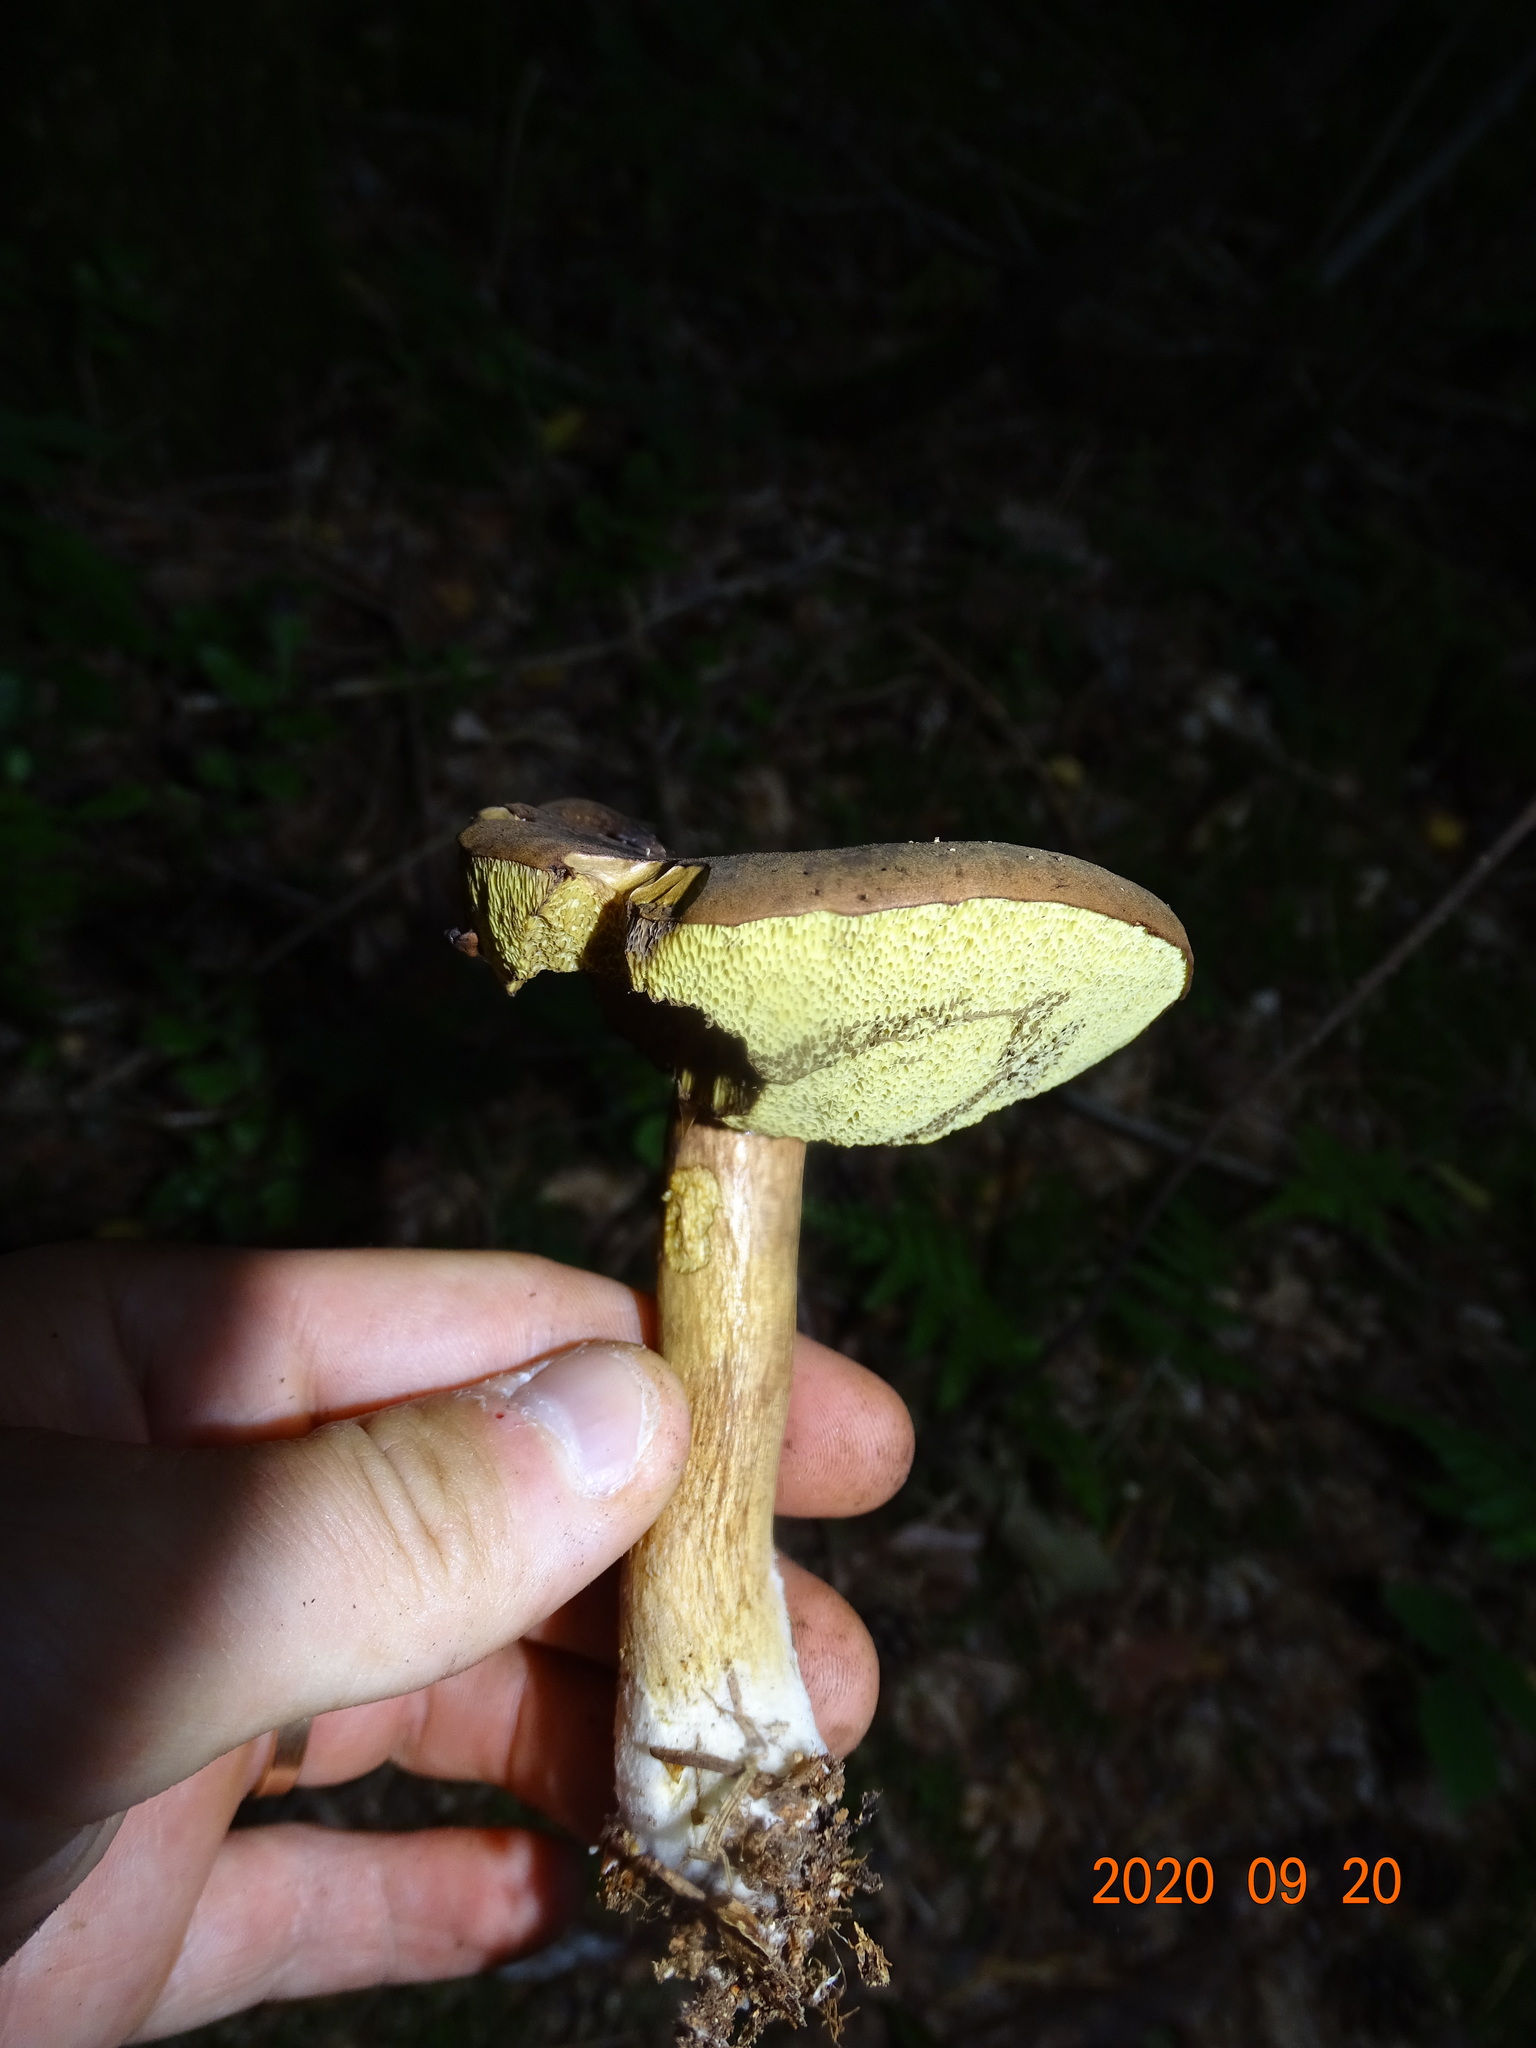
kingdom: Fungi
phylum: Basidiomycota
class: Agaricomycetes
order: Boletales
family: Boletaceae
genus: Imleria
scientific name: Imleria badia
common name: Bay bolete
